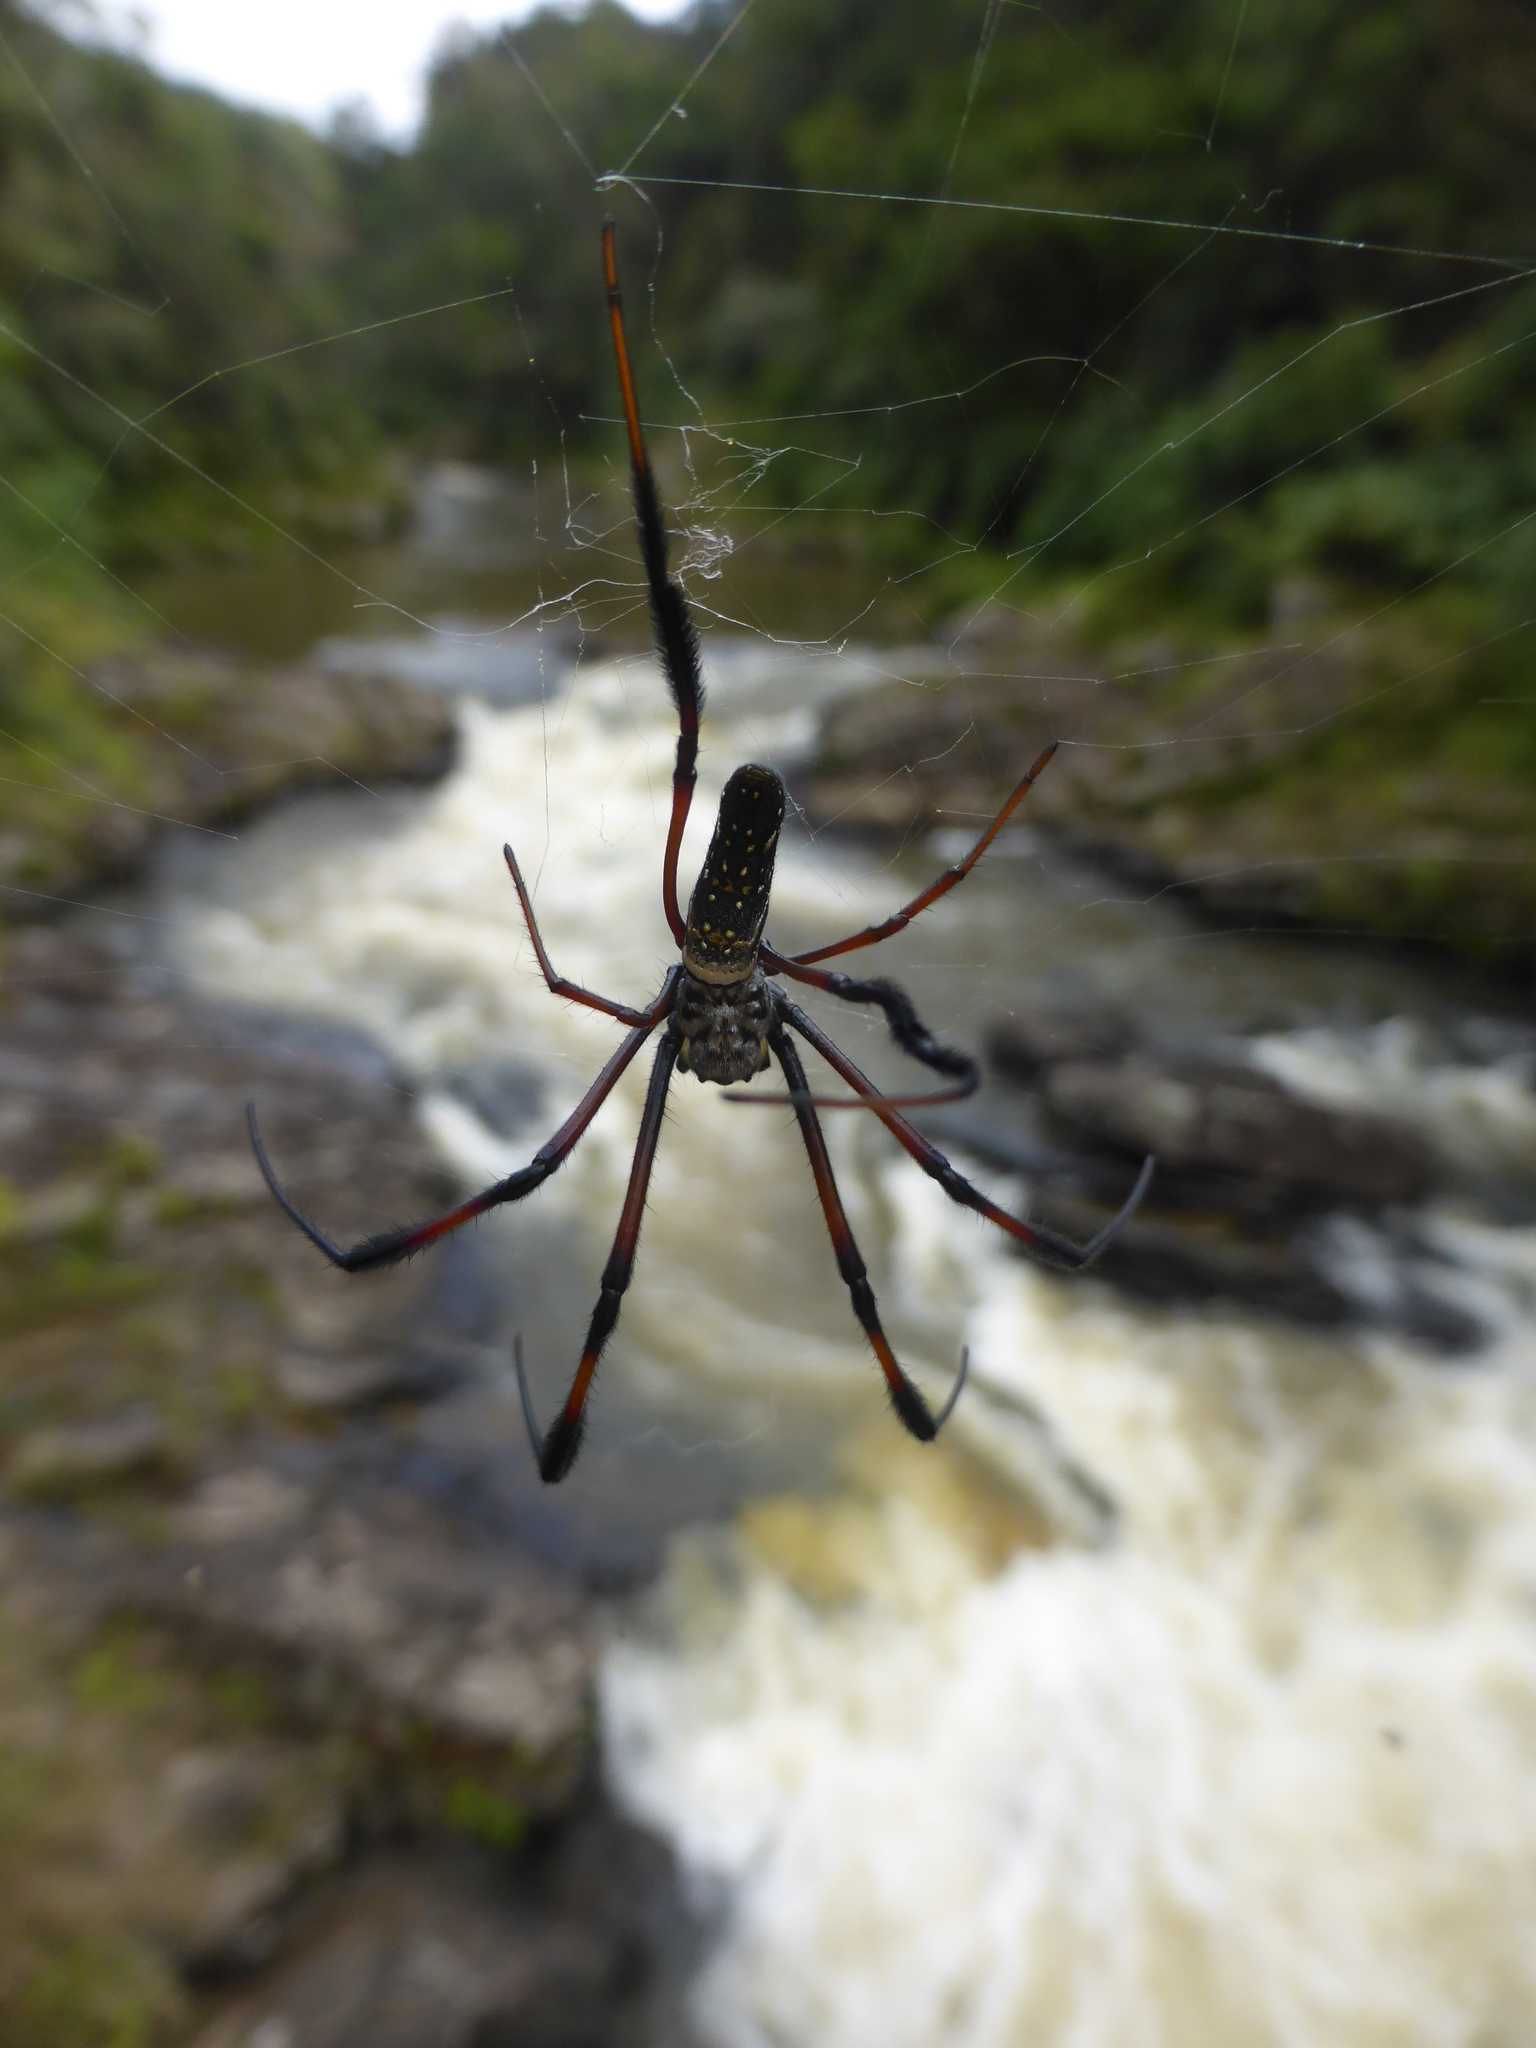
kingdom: Animalia
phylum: Arthropoda
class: Arachnida
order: Araneae
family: Araneidae
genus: Trichonephila
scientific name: Trichonephila inaurata
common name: Red-legged golden orb weaver
